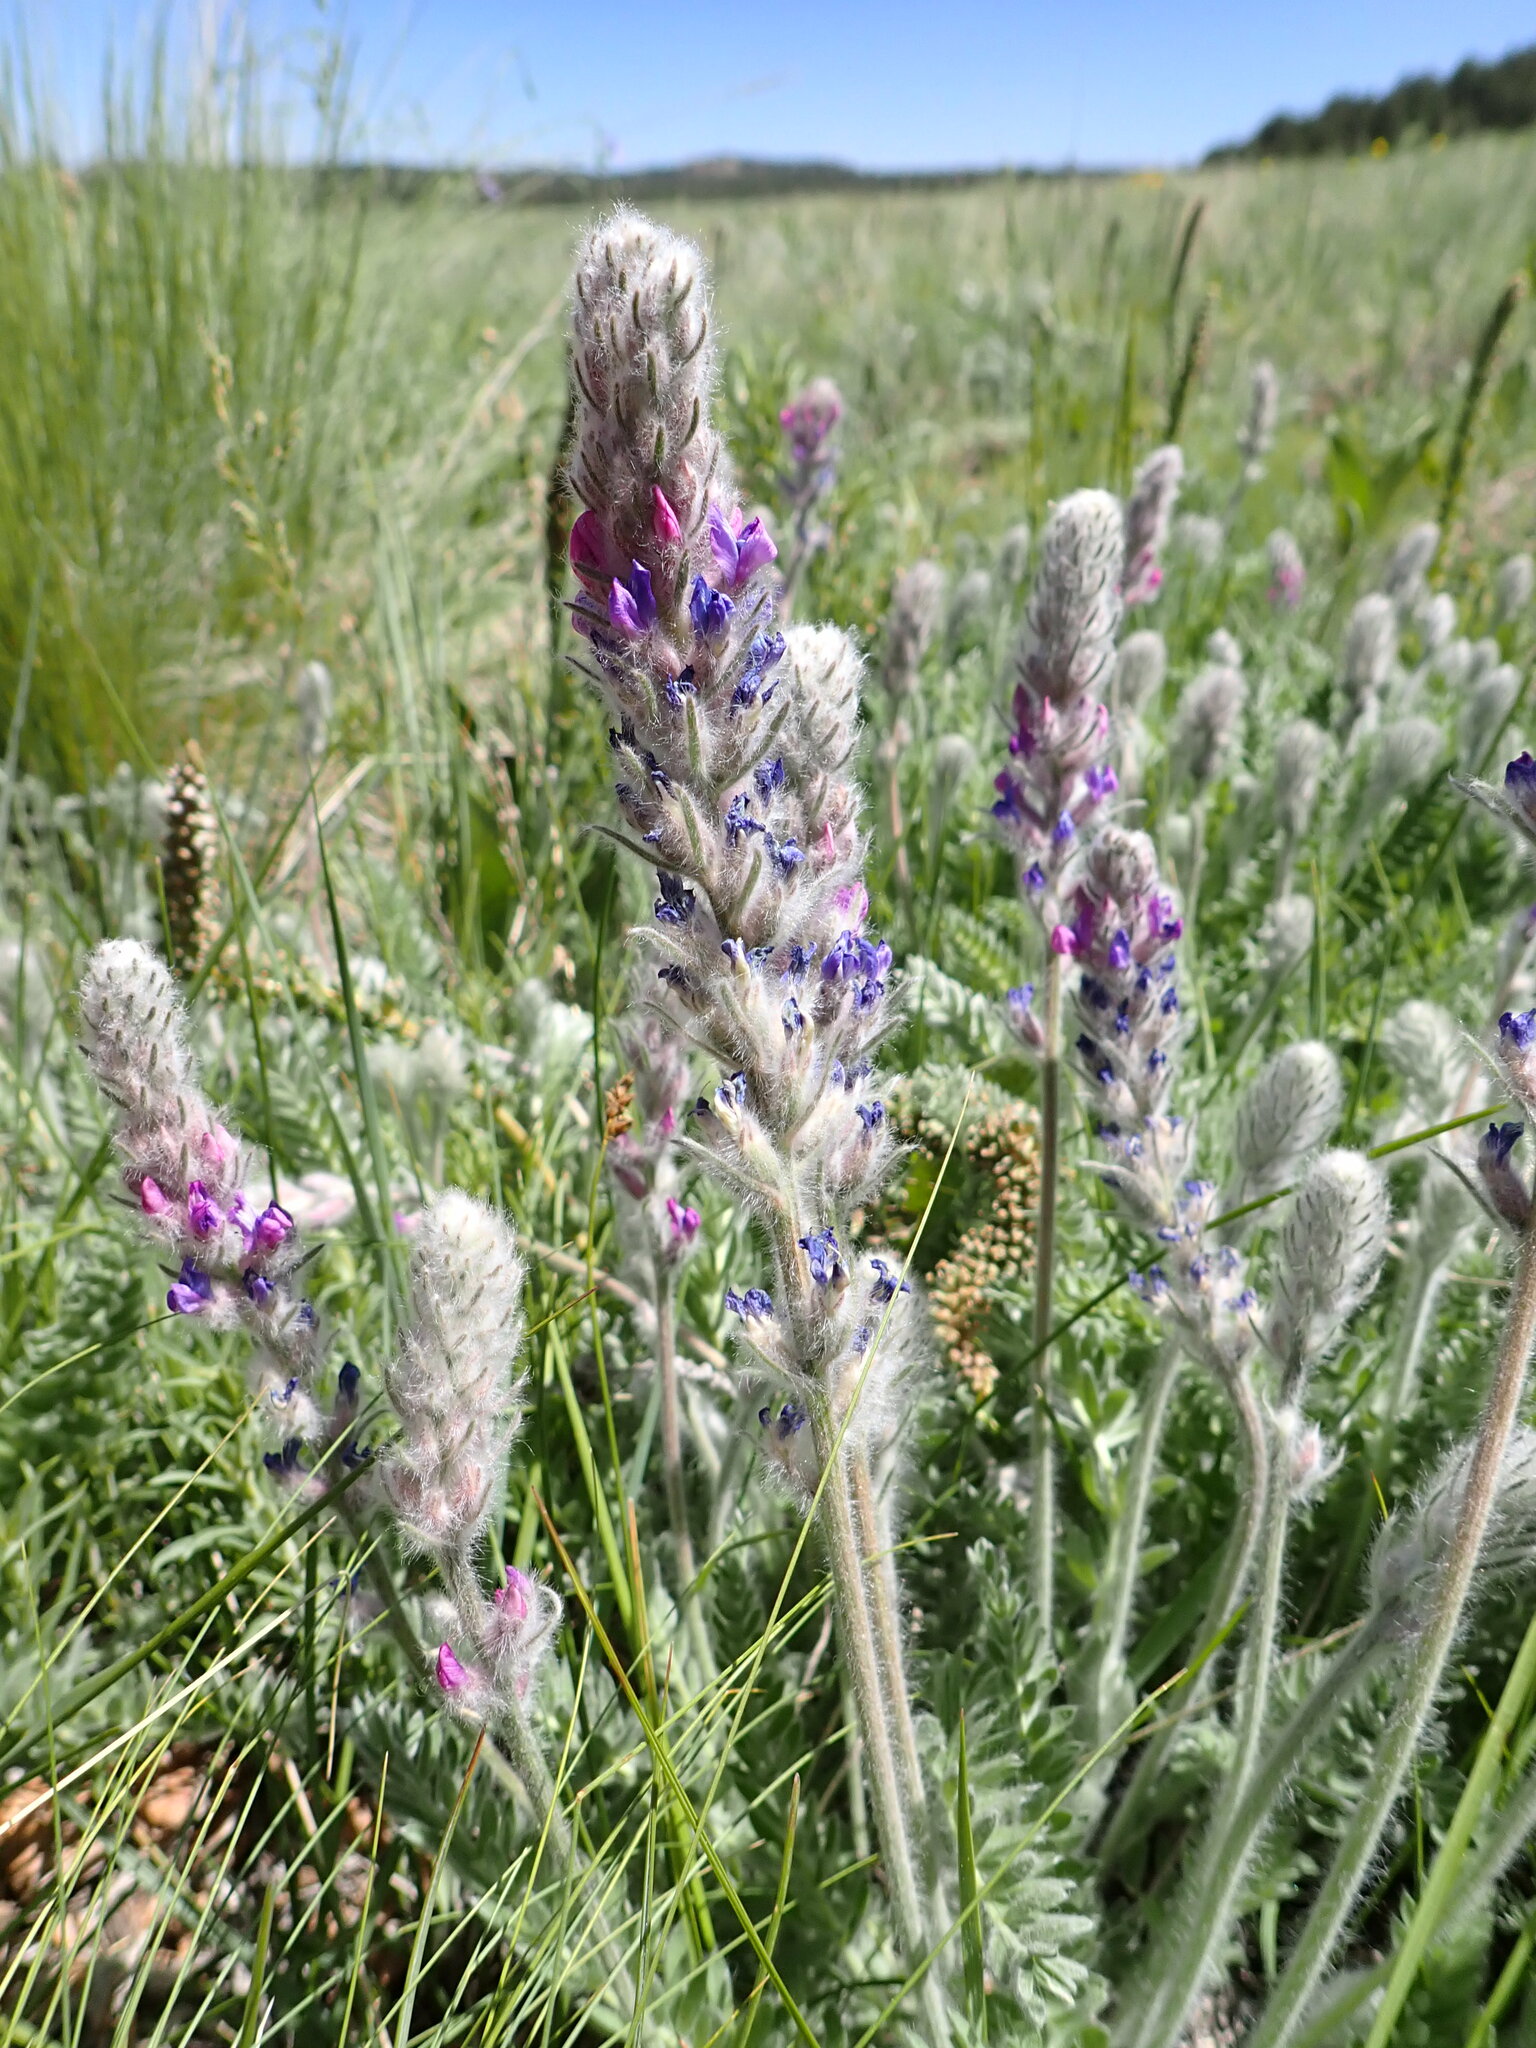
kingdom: Plantae
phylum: Tracheophyta
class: Magnoliopsida
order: Fabales
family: Fabaceae
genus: Oxytropis
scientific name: Oxytropis splendens
